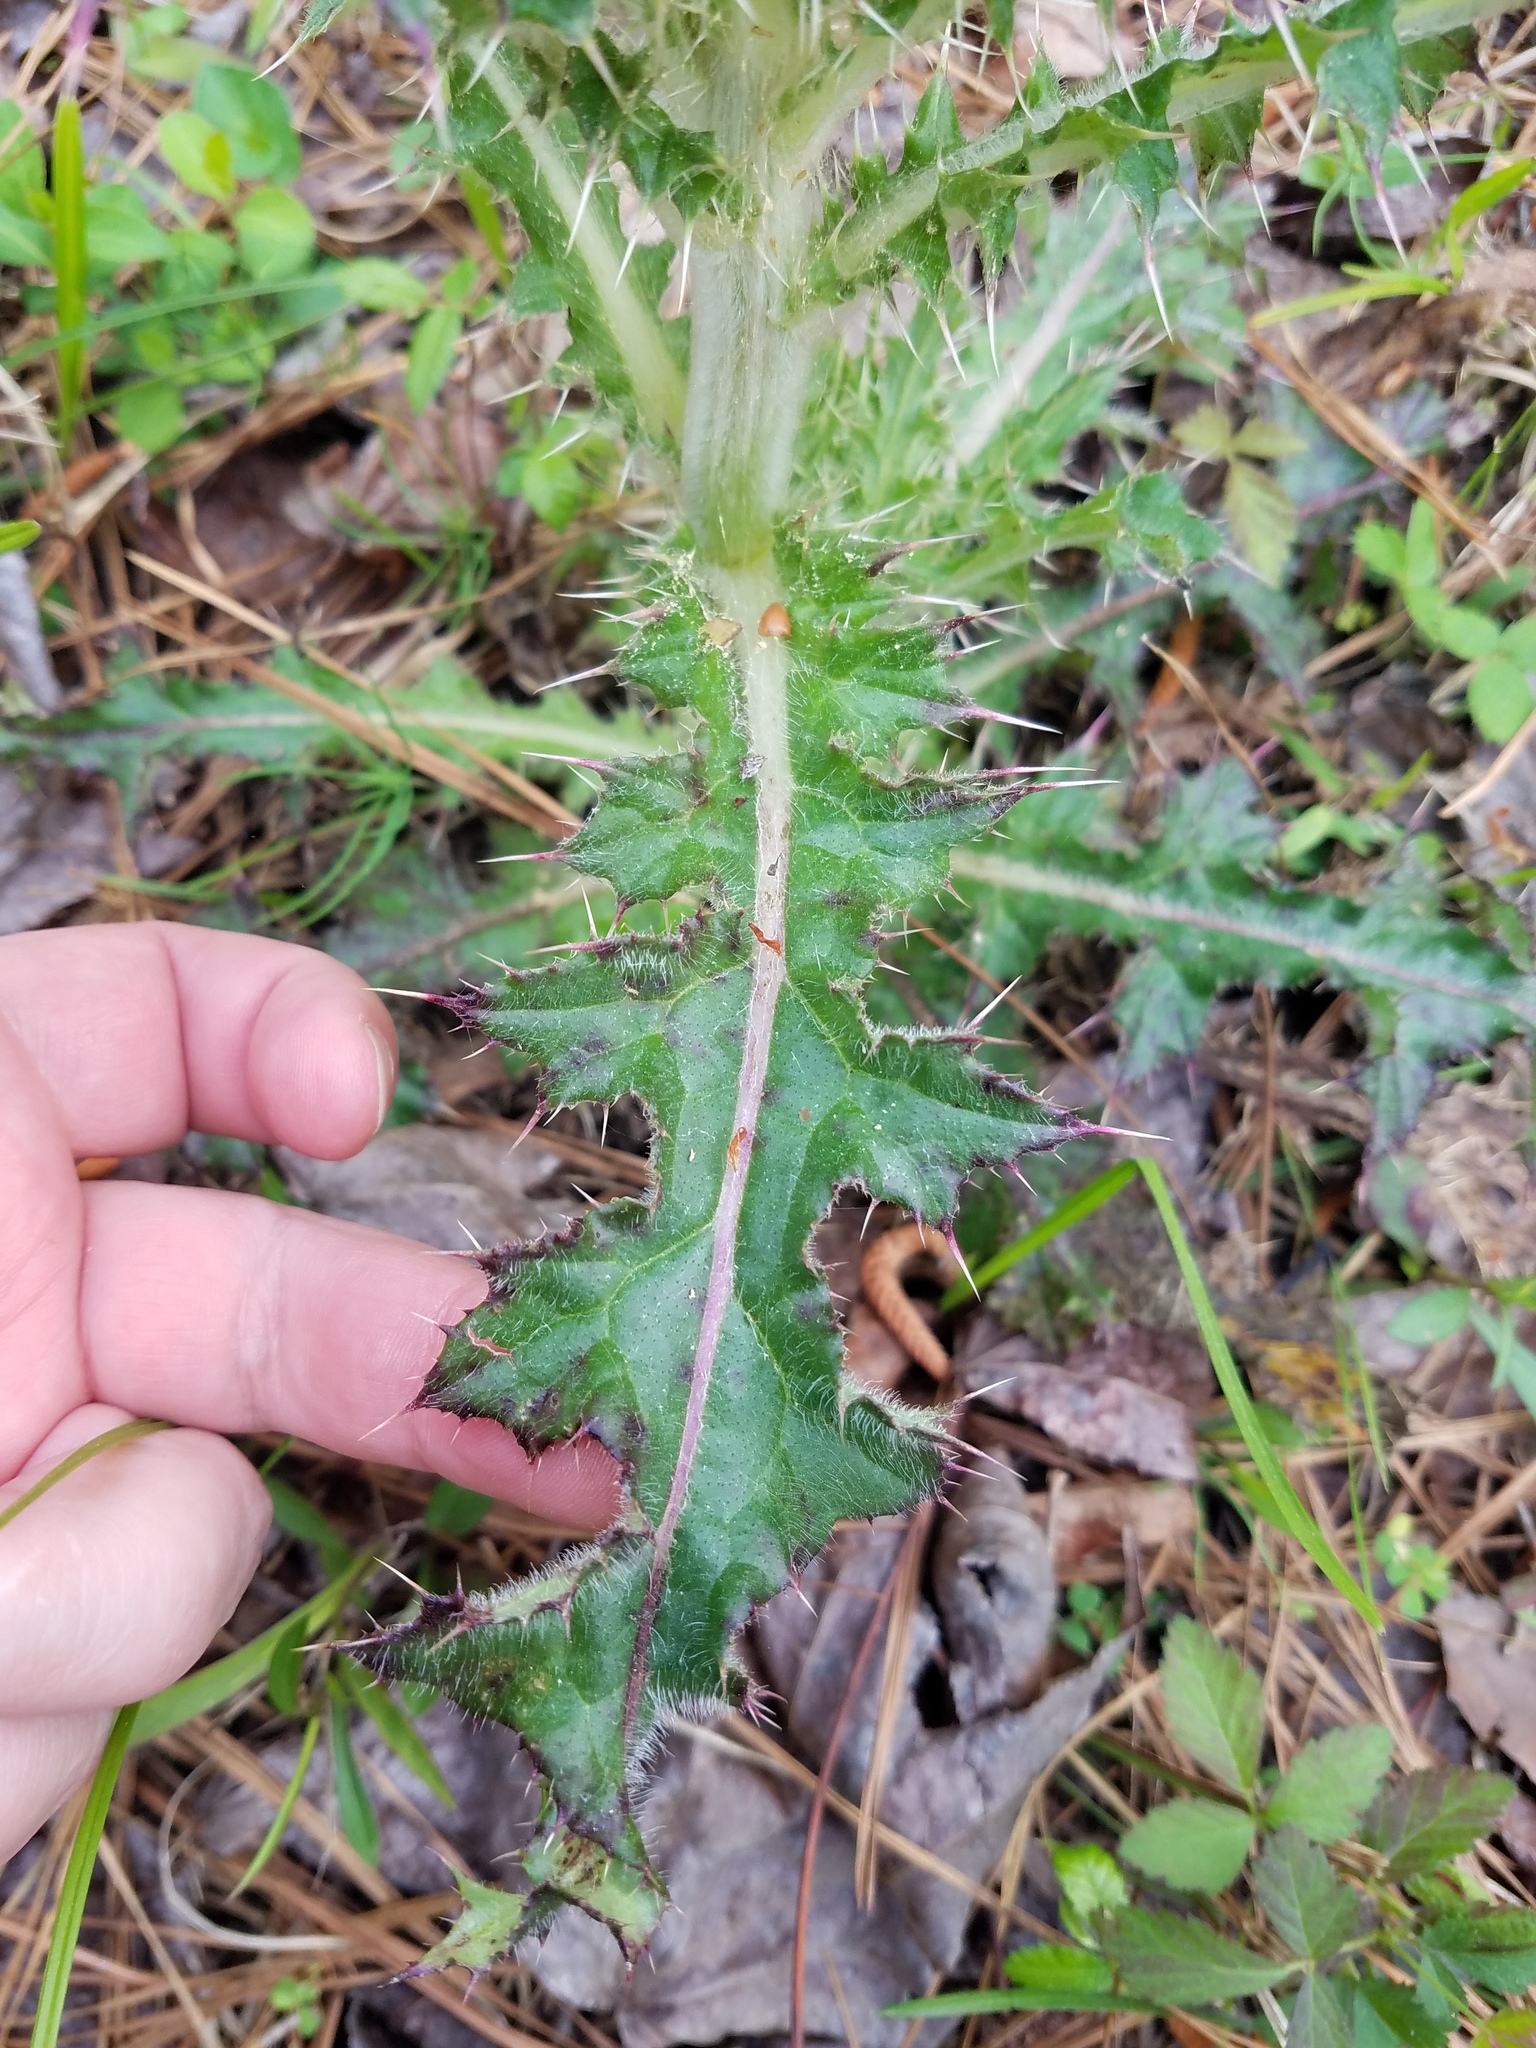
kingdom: Plantae
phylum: Tracheophyta
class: Magnoliopsida
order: Asterales
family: Asteraceae
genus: Cirsium
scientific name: Cirsium horridulum
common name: Bristly thistle
